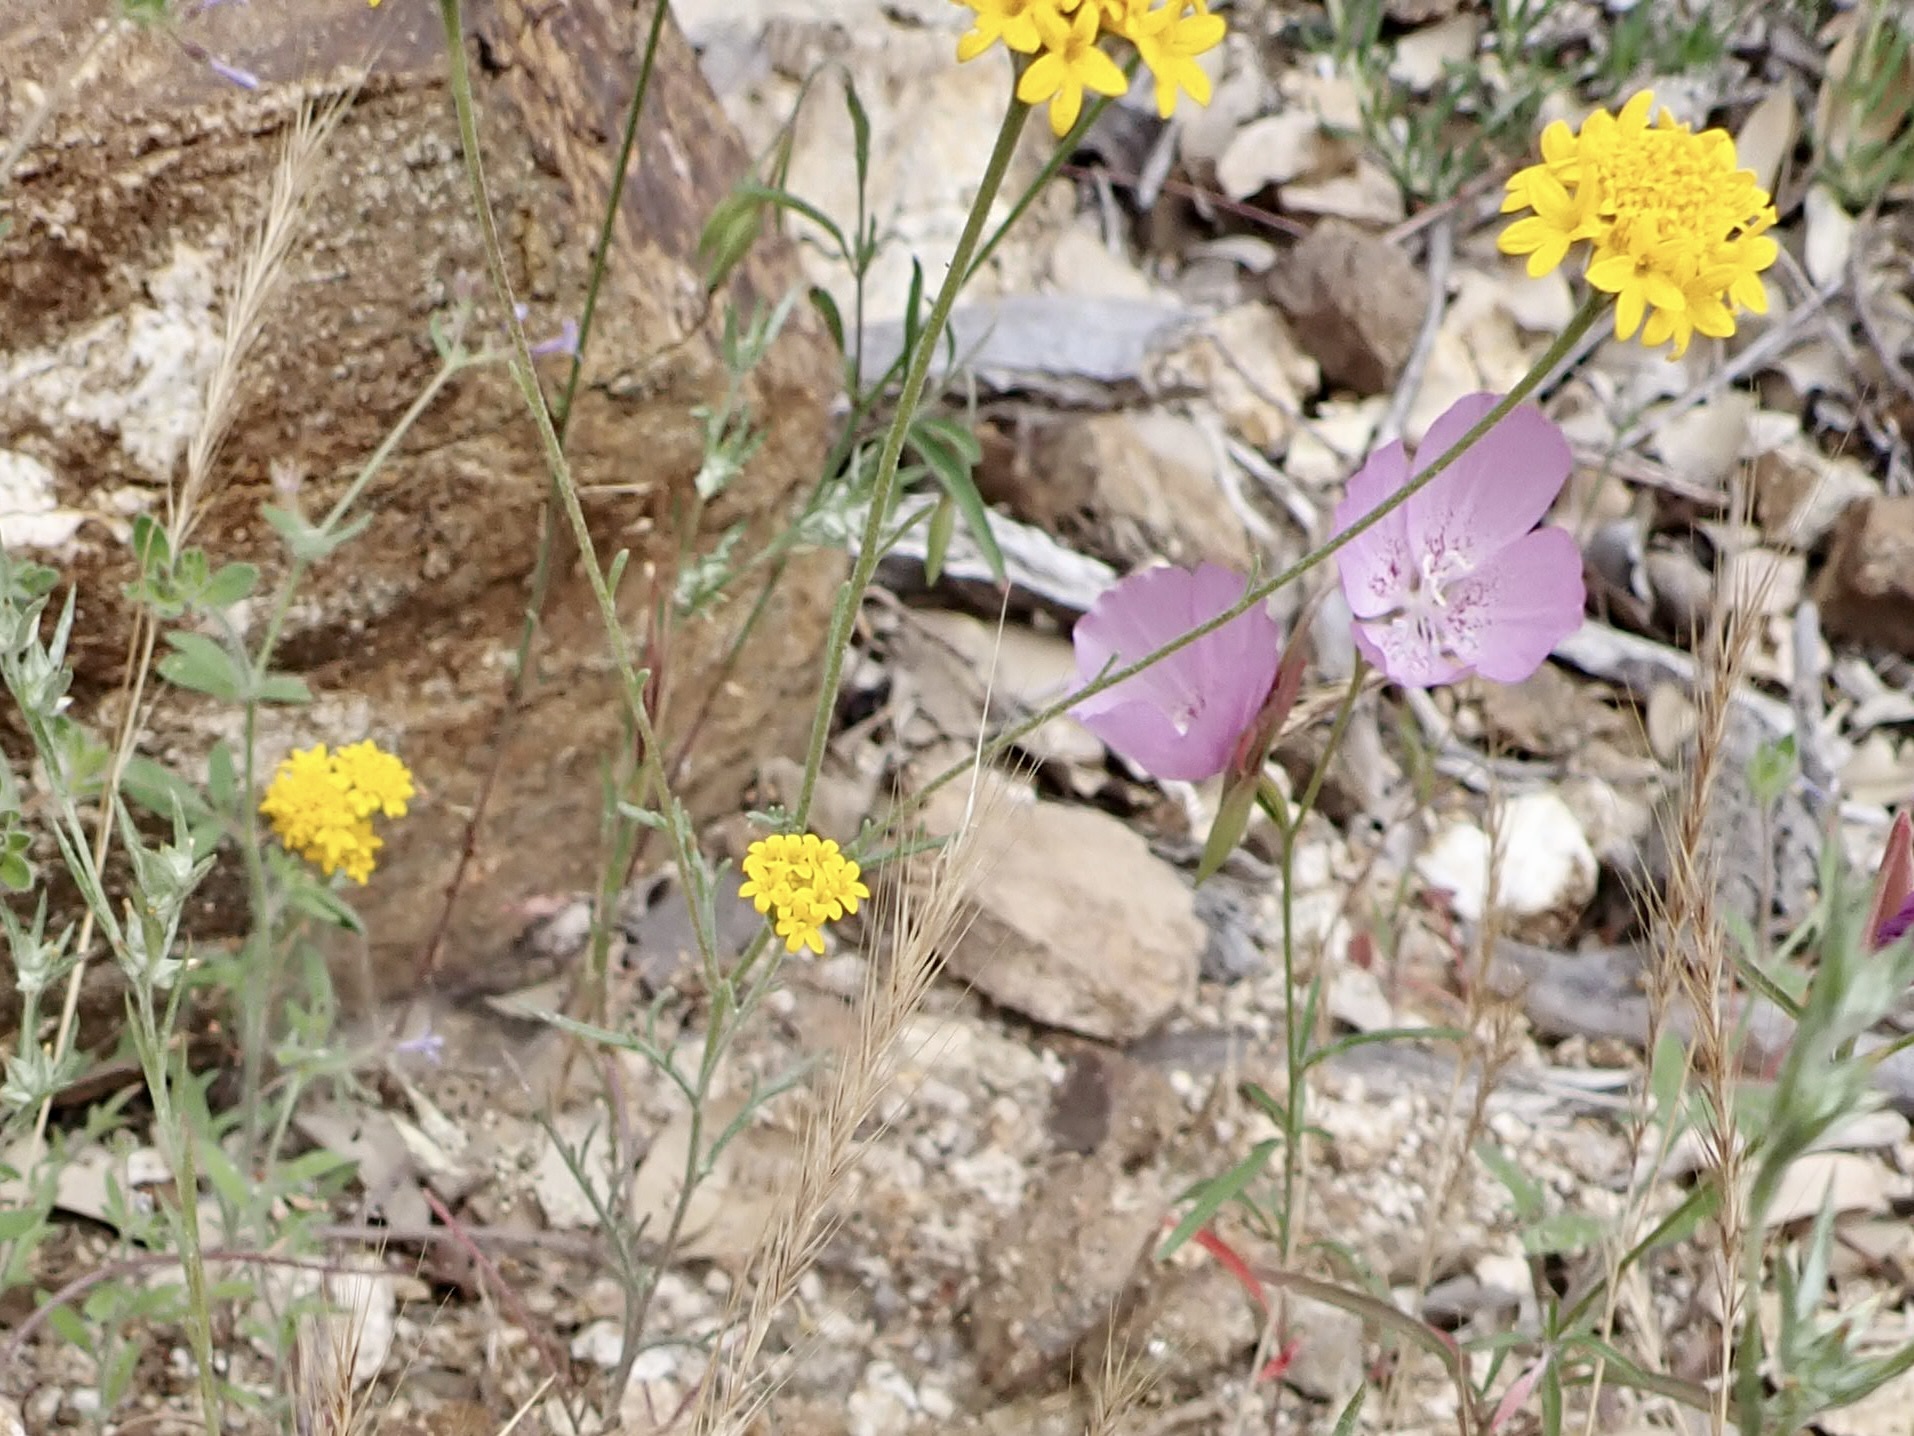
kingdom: Plantae
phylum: Tracheophyta
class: Magnoliopsida
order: Asterales
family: Asteraceae
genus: Chaenactis
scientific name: Chaenactis glabriuscula
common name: Yellow pincushion
